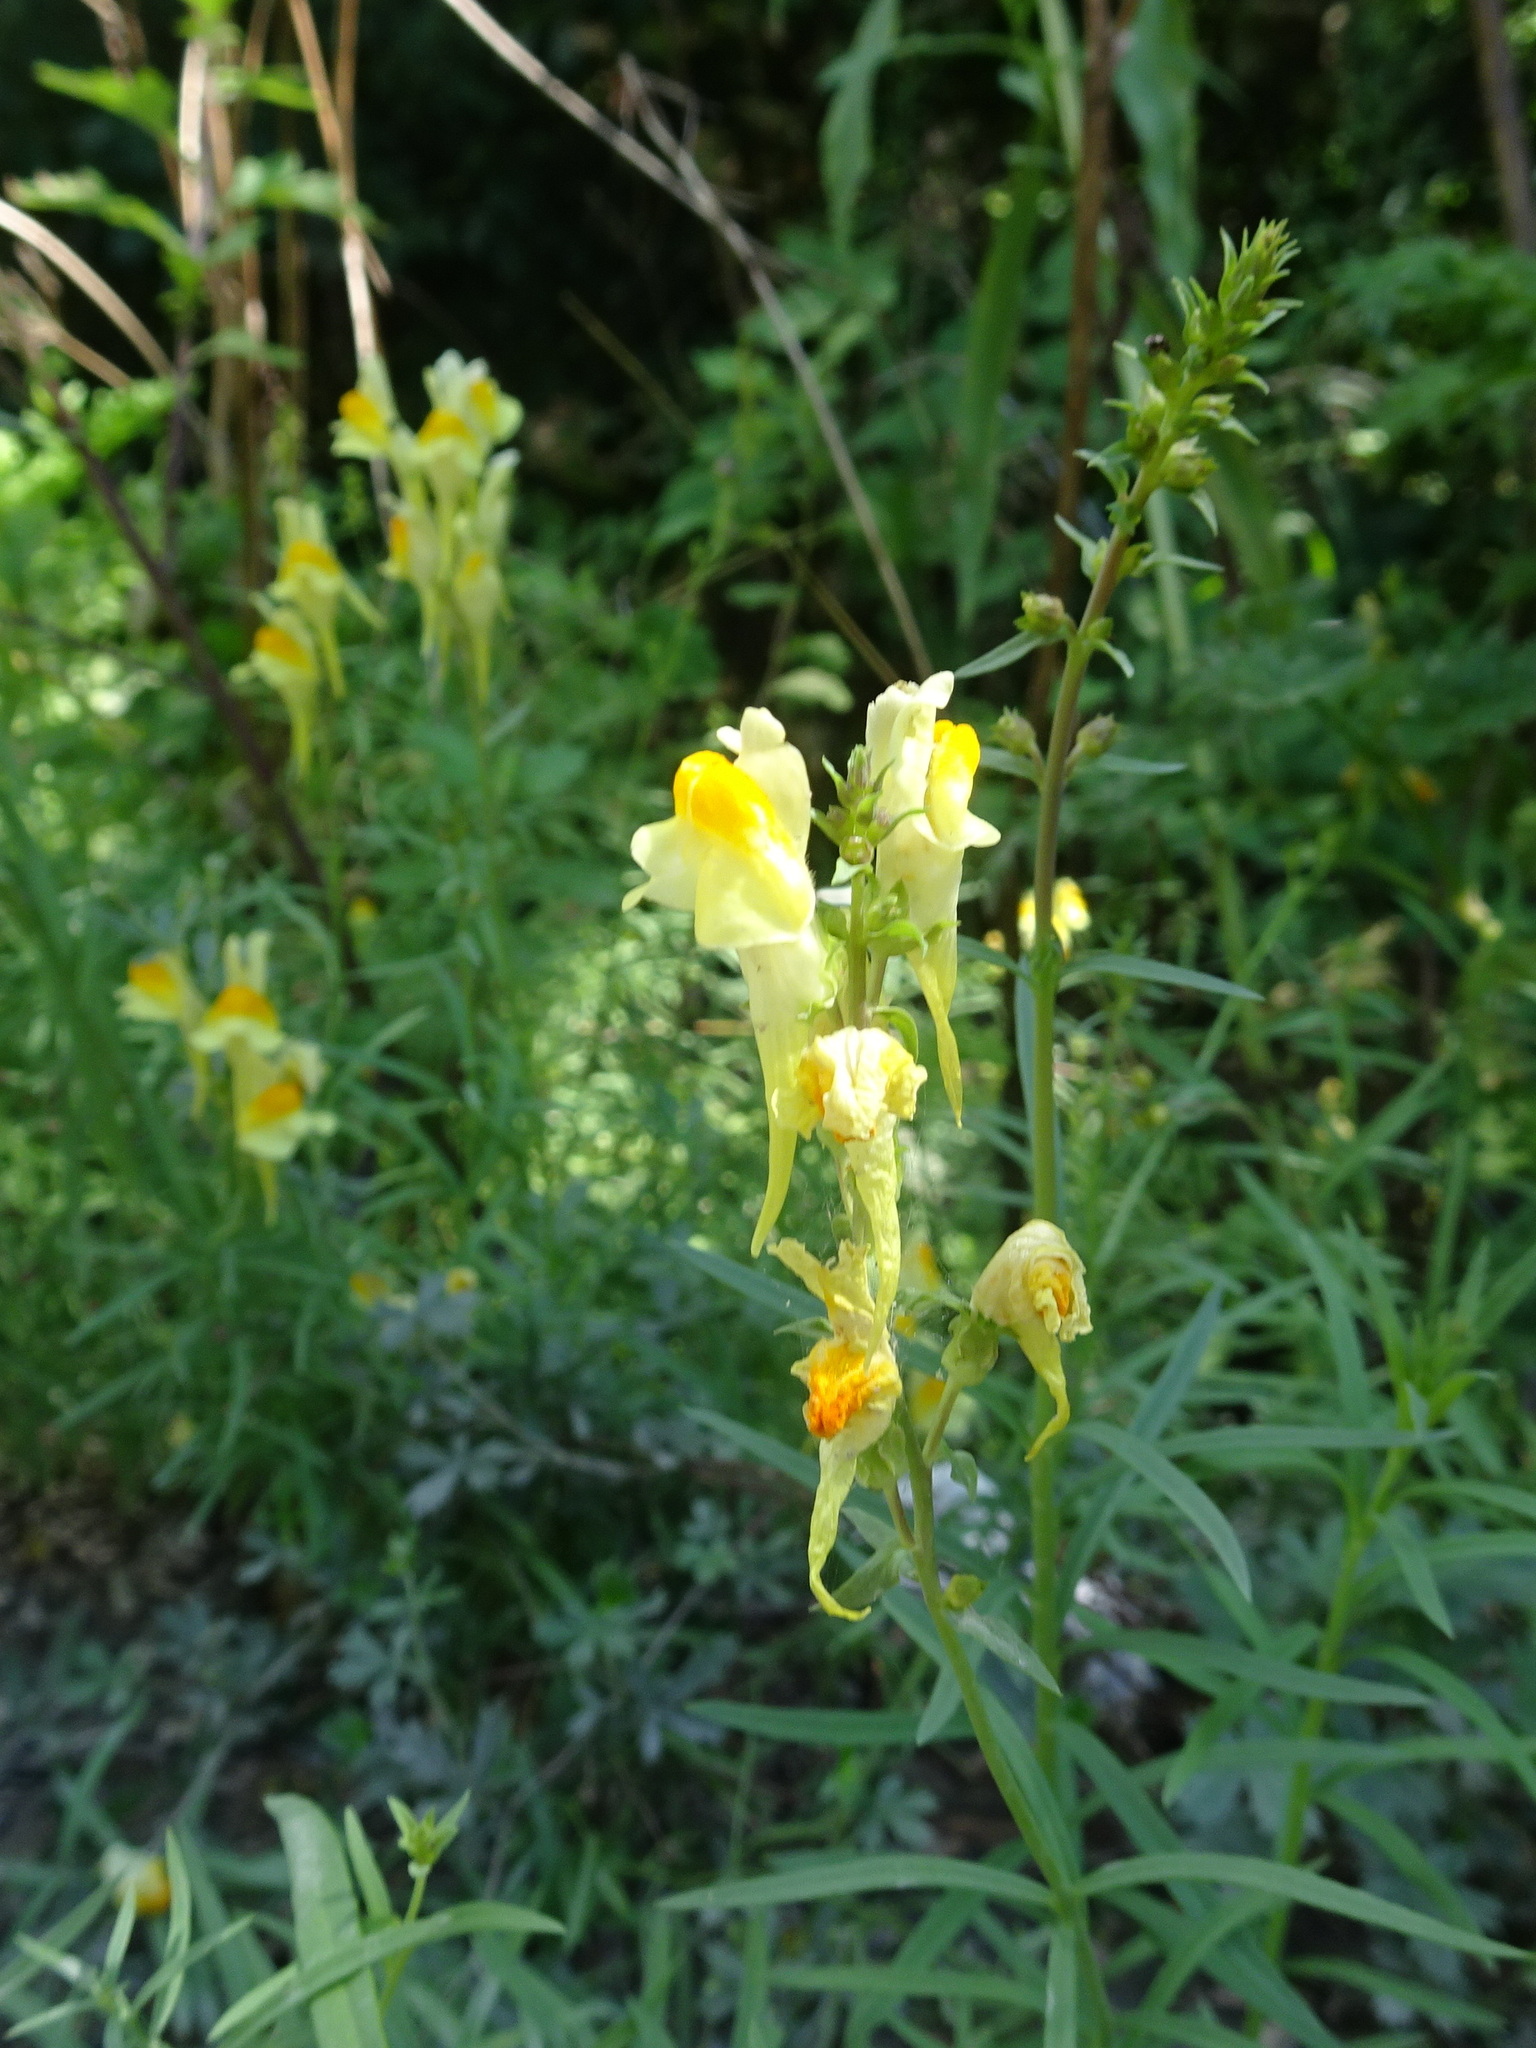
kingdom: Plantae
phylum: Tracheophyta
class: Magnoliopsida
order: Lamiales
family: Plantaginaceae
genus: Linaria
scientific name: Linaria vulgaris
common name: Butter and eggs
